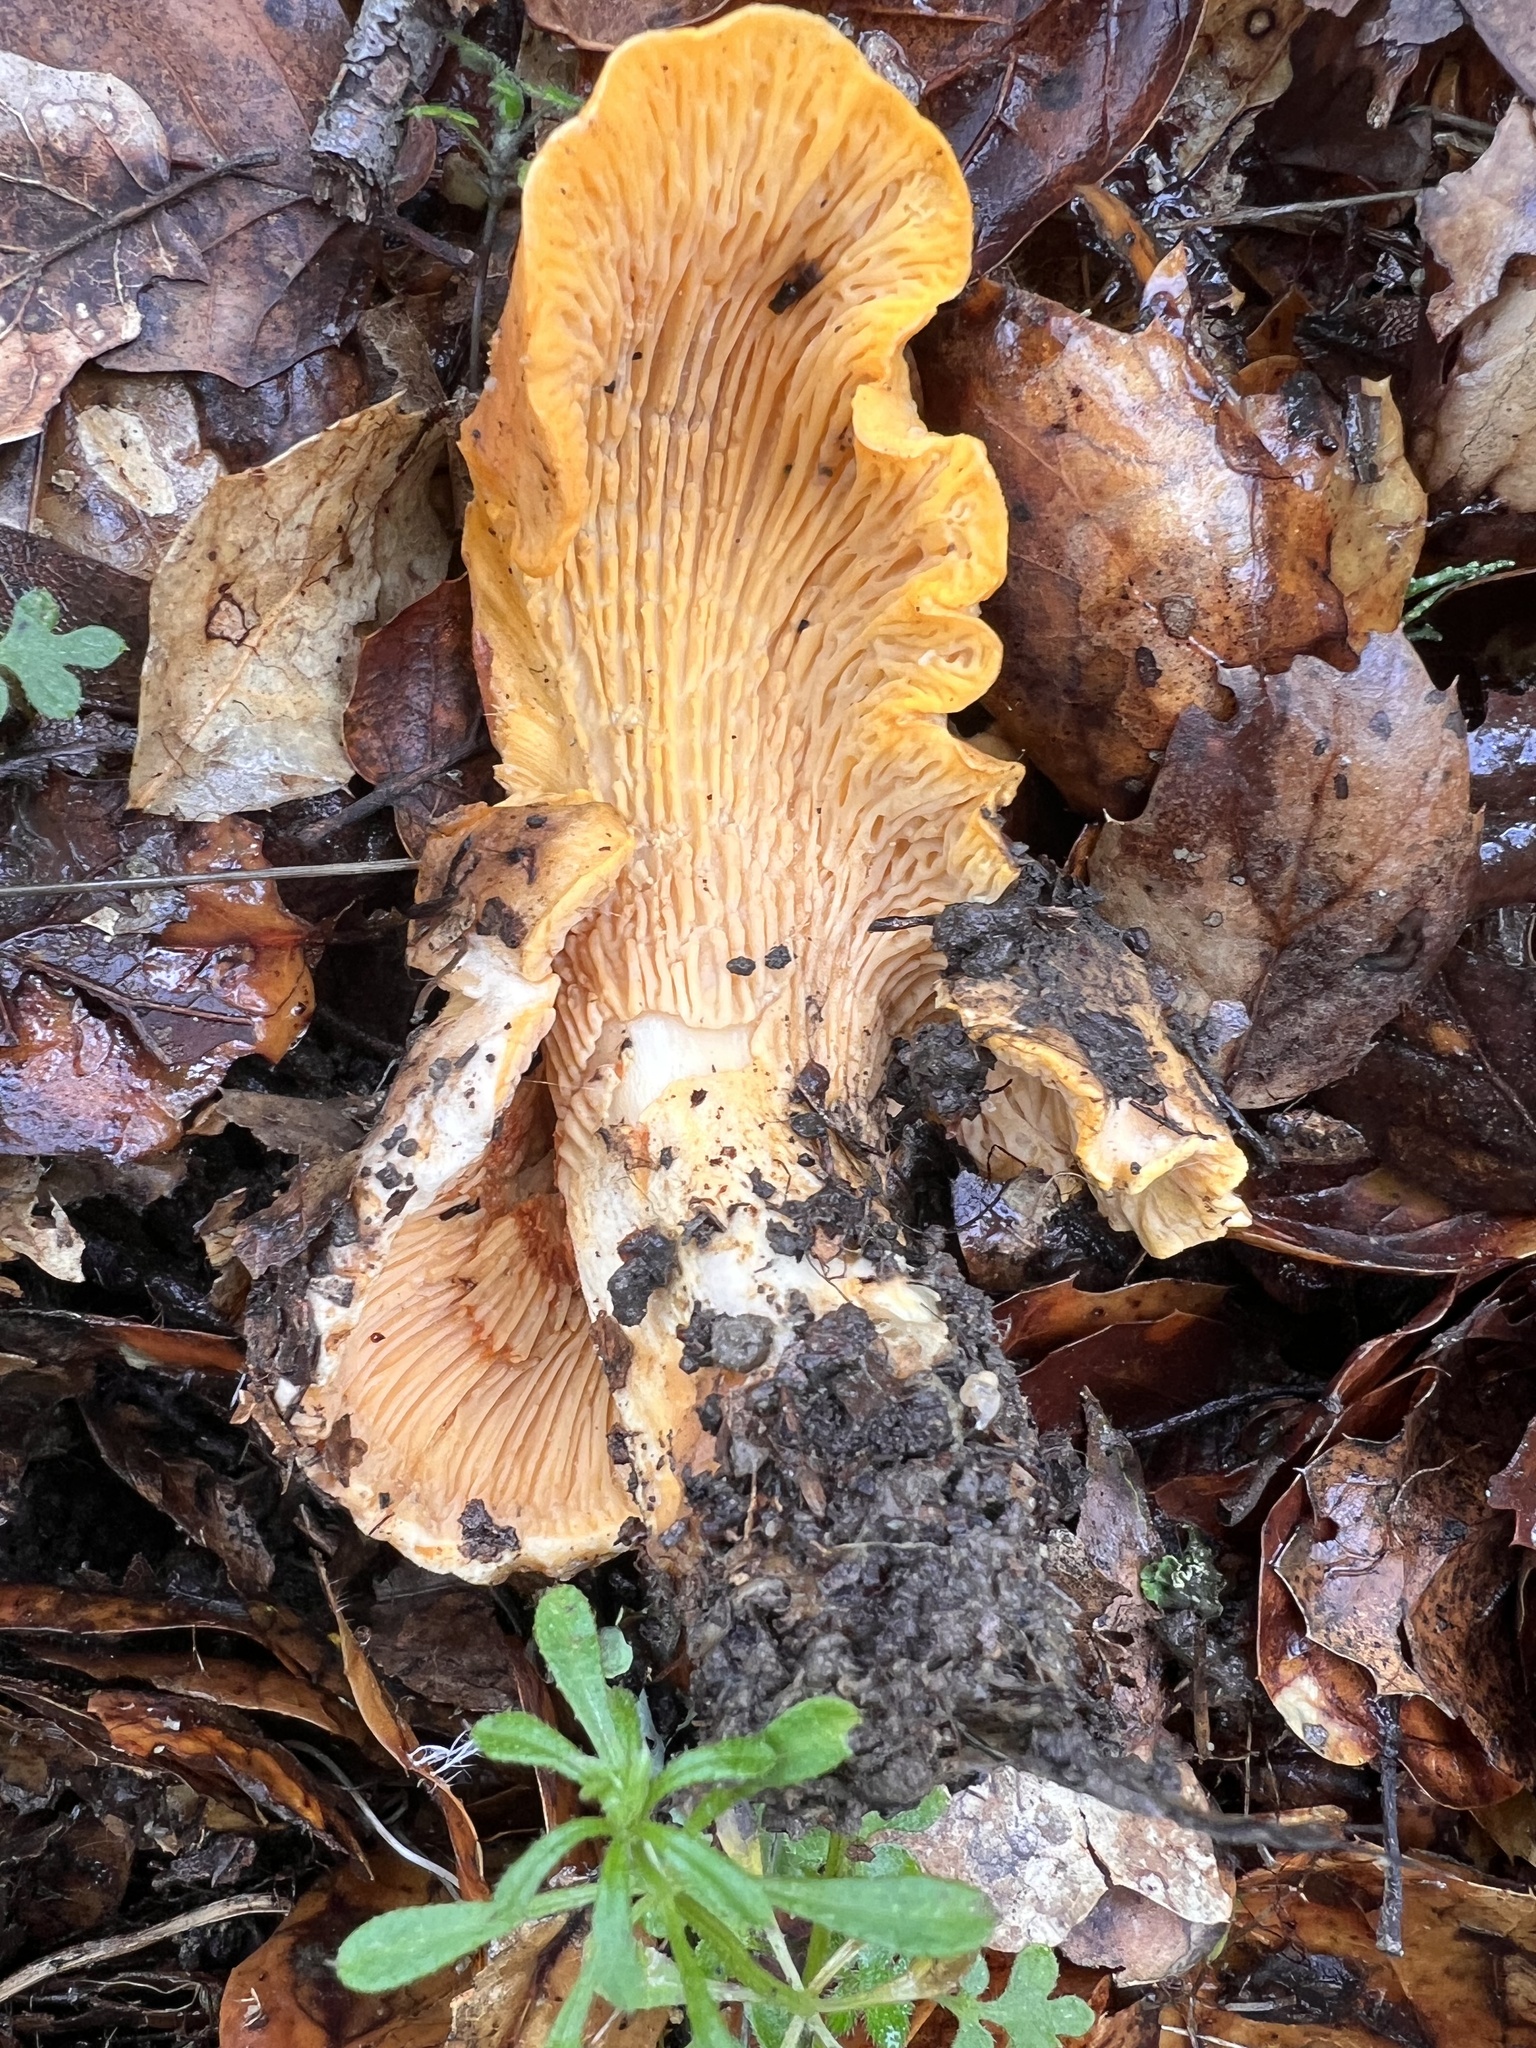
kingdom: Fungi
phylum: Basidiomycota
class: Agaricomycetes
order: Cantharellales
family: Hydnaceae
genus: Cantharellus
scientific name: Cantharellus californicus
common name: California golden chanterelle
